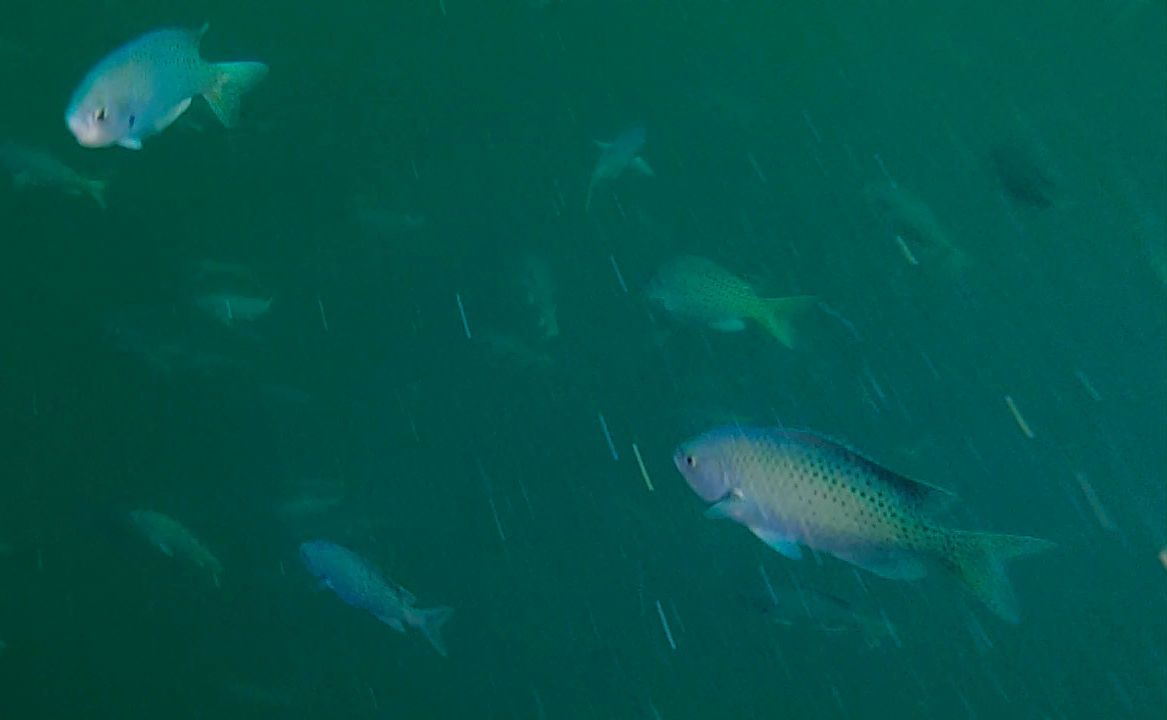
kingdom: Animalia
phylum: Chordata
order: Perciformes
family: Pomacentridae
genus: Chromis
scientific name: Chromis punctipinnis
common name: Blacksmith
